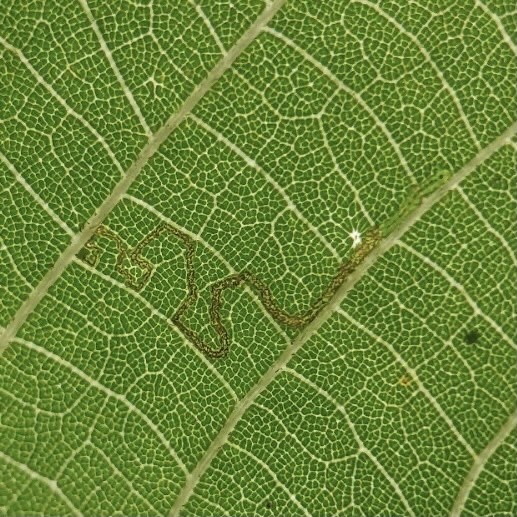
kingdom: Animalia
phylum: Arthropoda
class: Insecta
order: Lepidoptera
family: Nepticulidae
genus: Stigmella
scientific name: Stigmella argentifasciella
